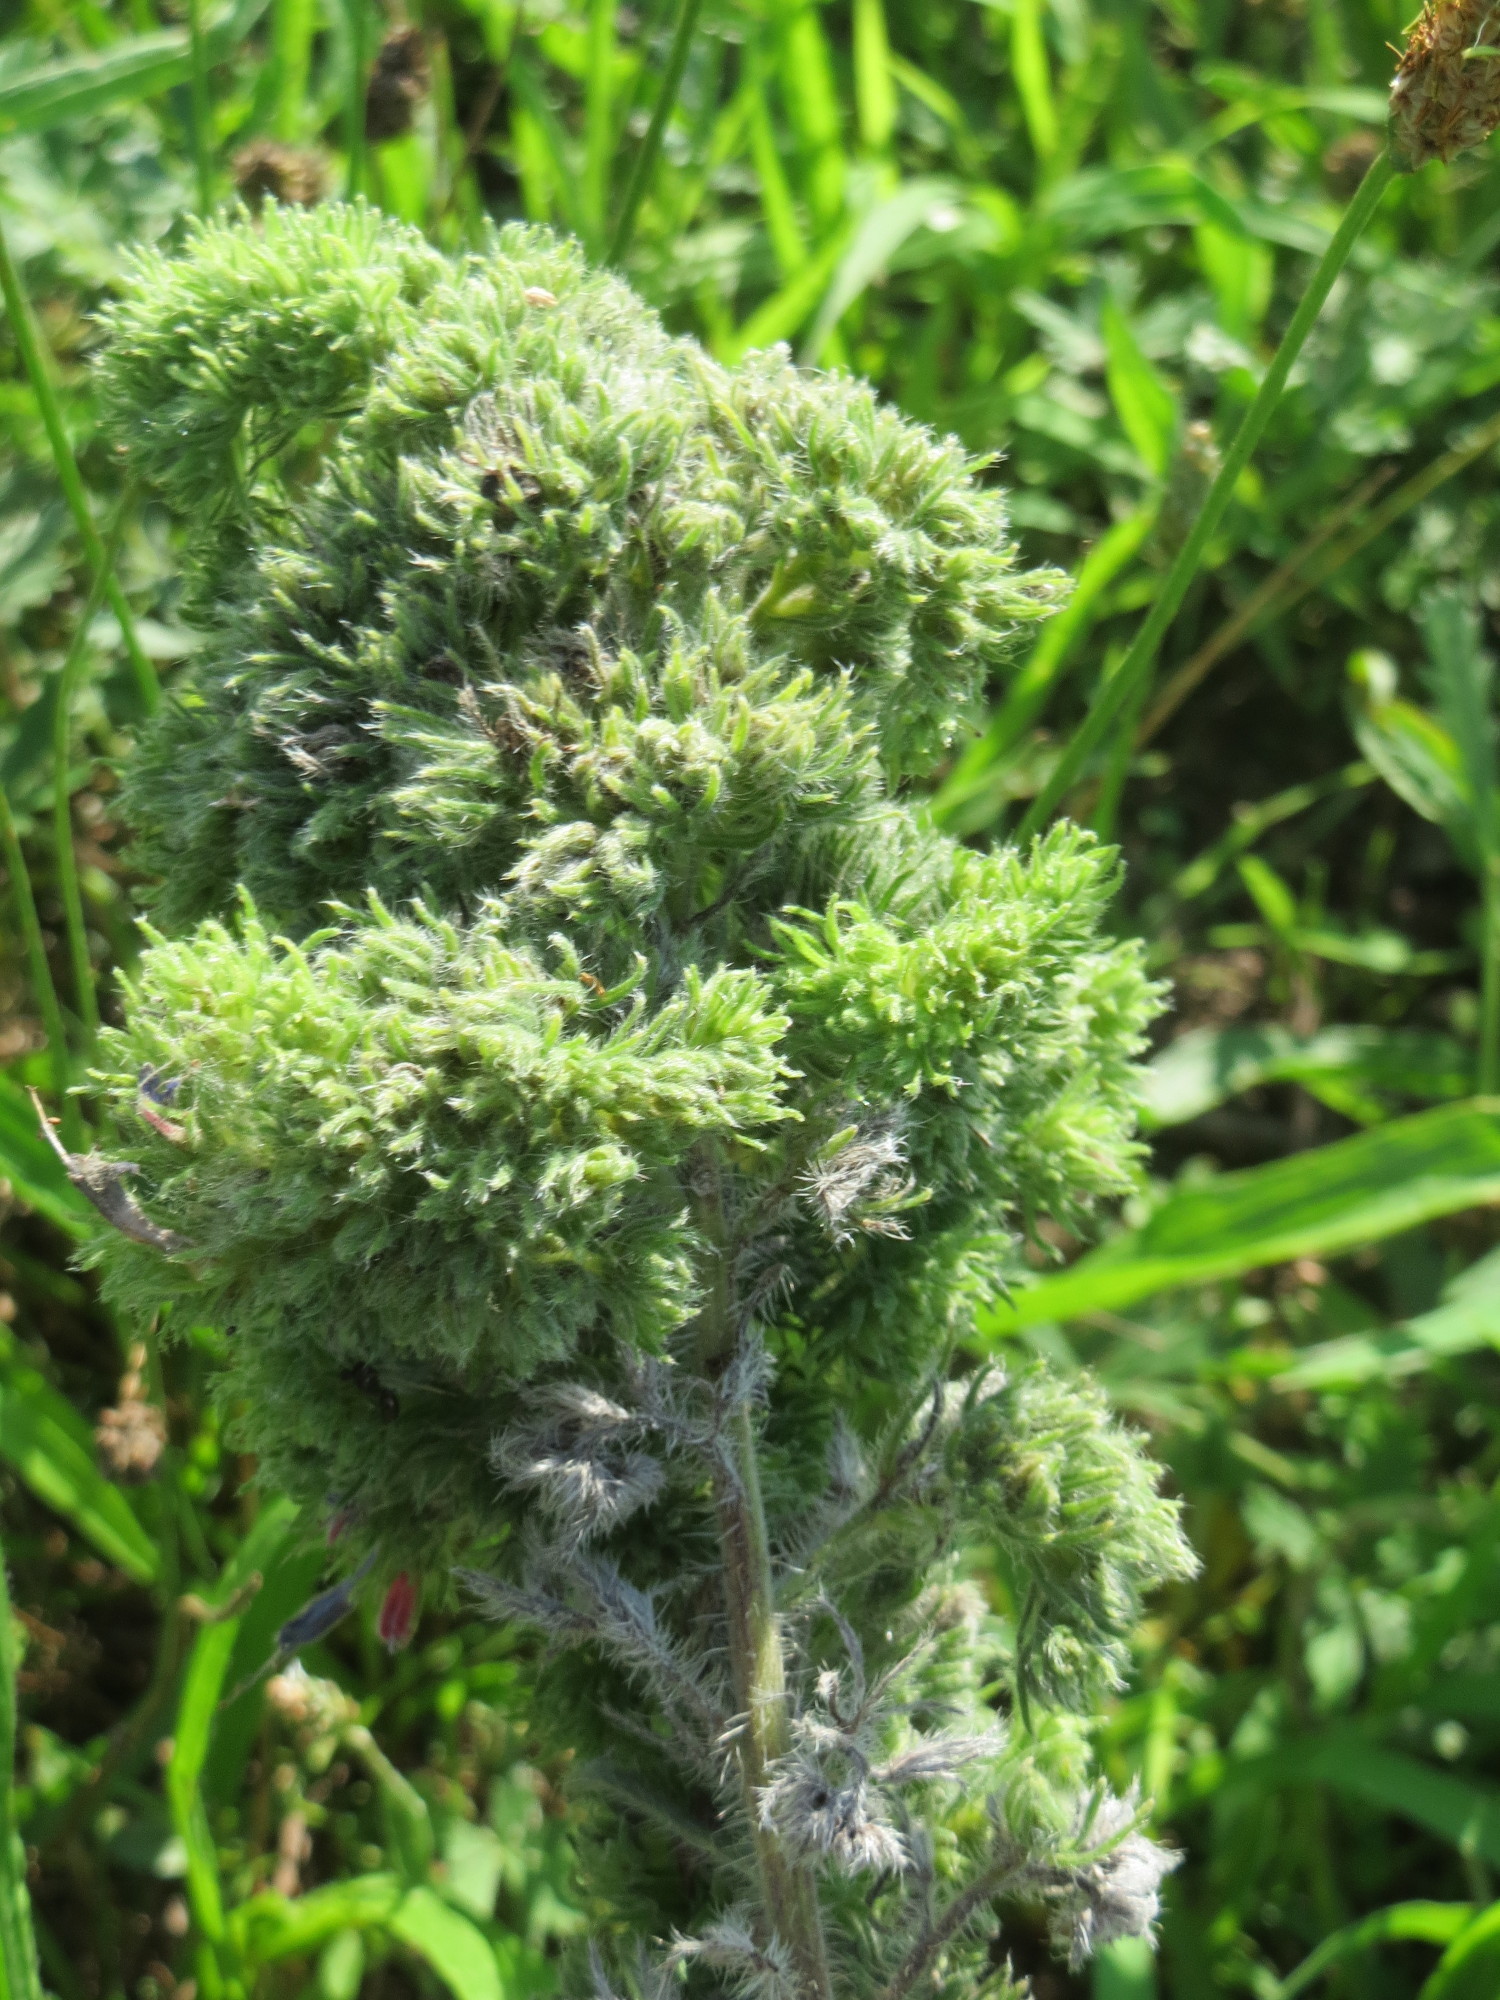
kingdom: Plantae
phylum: Tracheophyta
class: Magnoliopsida
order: Boraginales
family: Boraginaceae
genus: Echium
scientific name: Echium vulgare
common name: Common viper's bugloss
